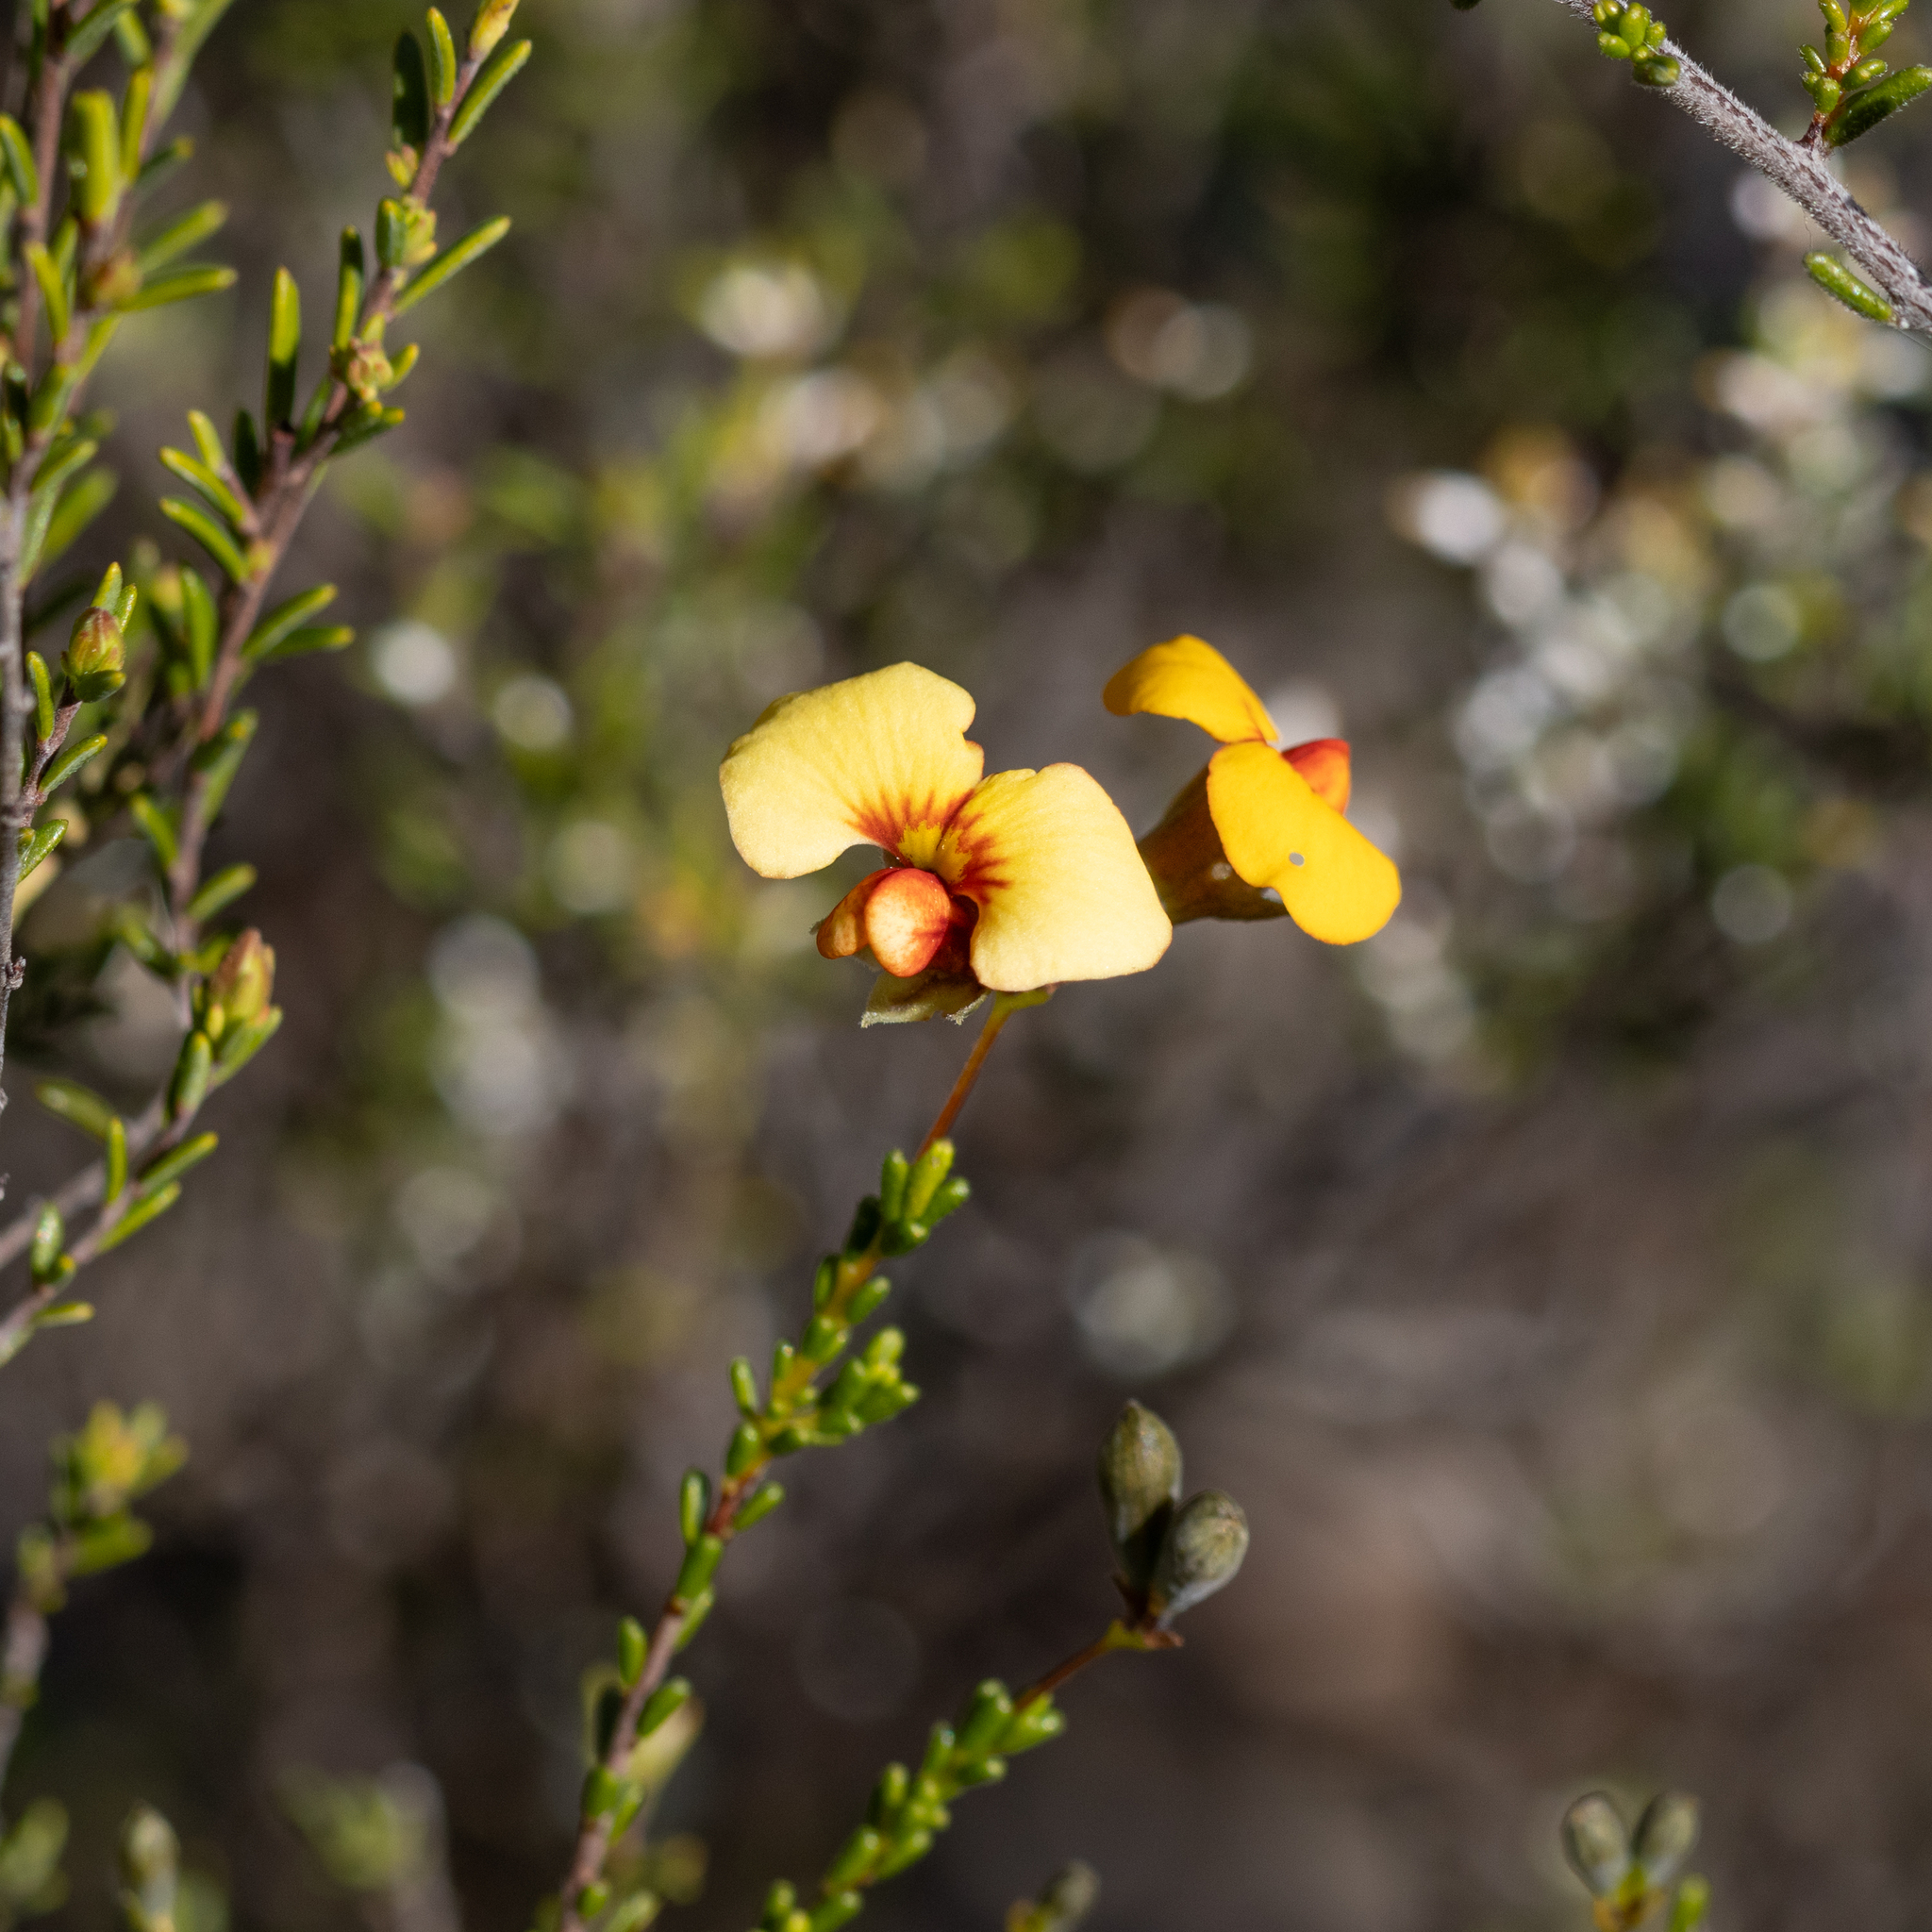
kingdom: Plantae
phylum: Tracheophyta
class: Magnoliopsida
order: Fabales
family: Fabaceae
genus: Dillwynia
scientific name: Dillwynia hispida
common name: Red parrot-pea
